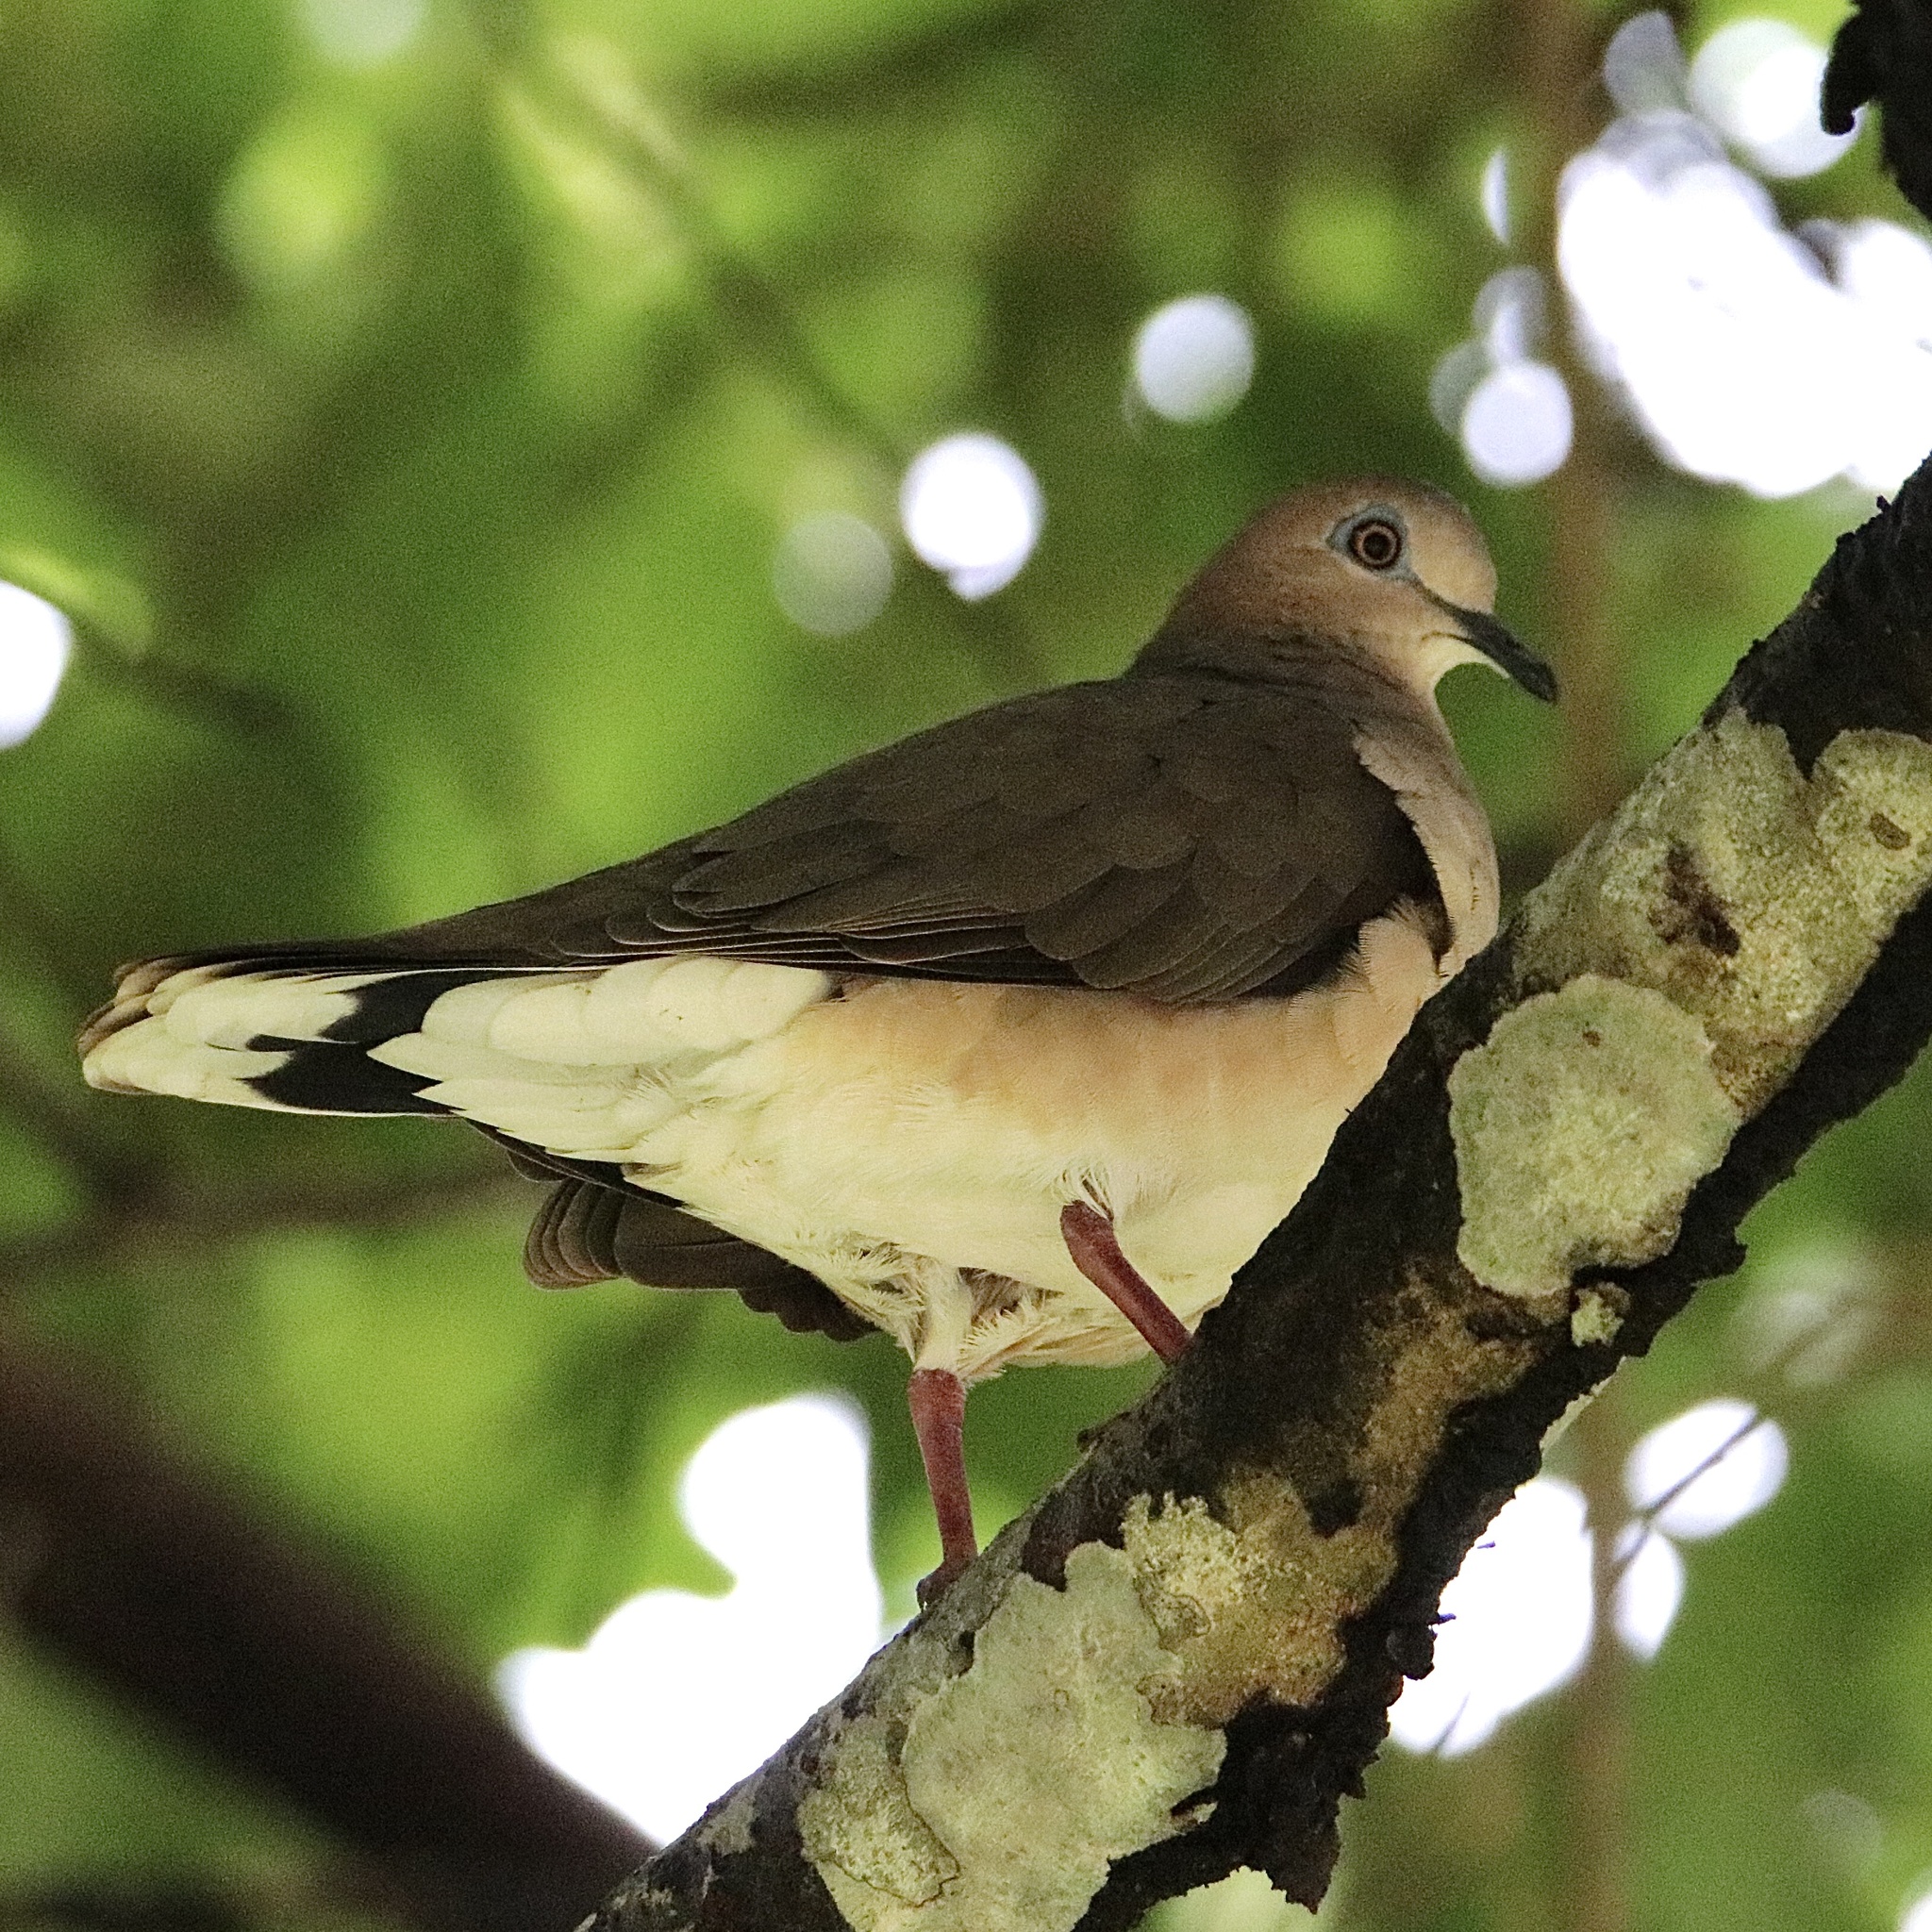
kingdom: Animalia
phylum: Chordata
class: Aves
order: Columbiformes
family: Columbidae
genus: Leptotila
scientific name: Leptotila verreauxi
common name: White-tipped dove
